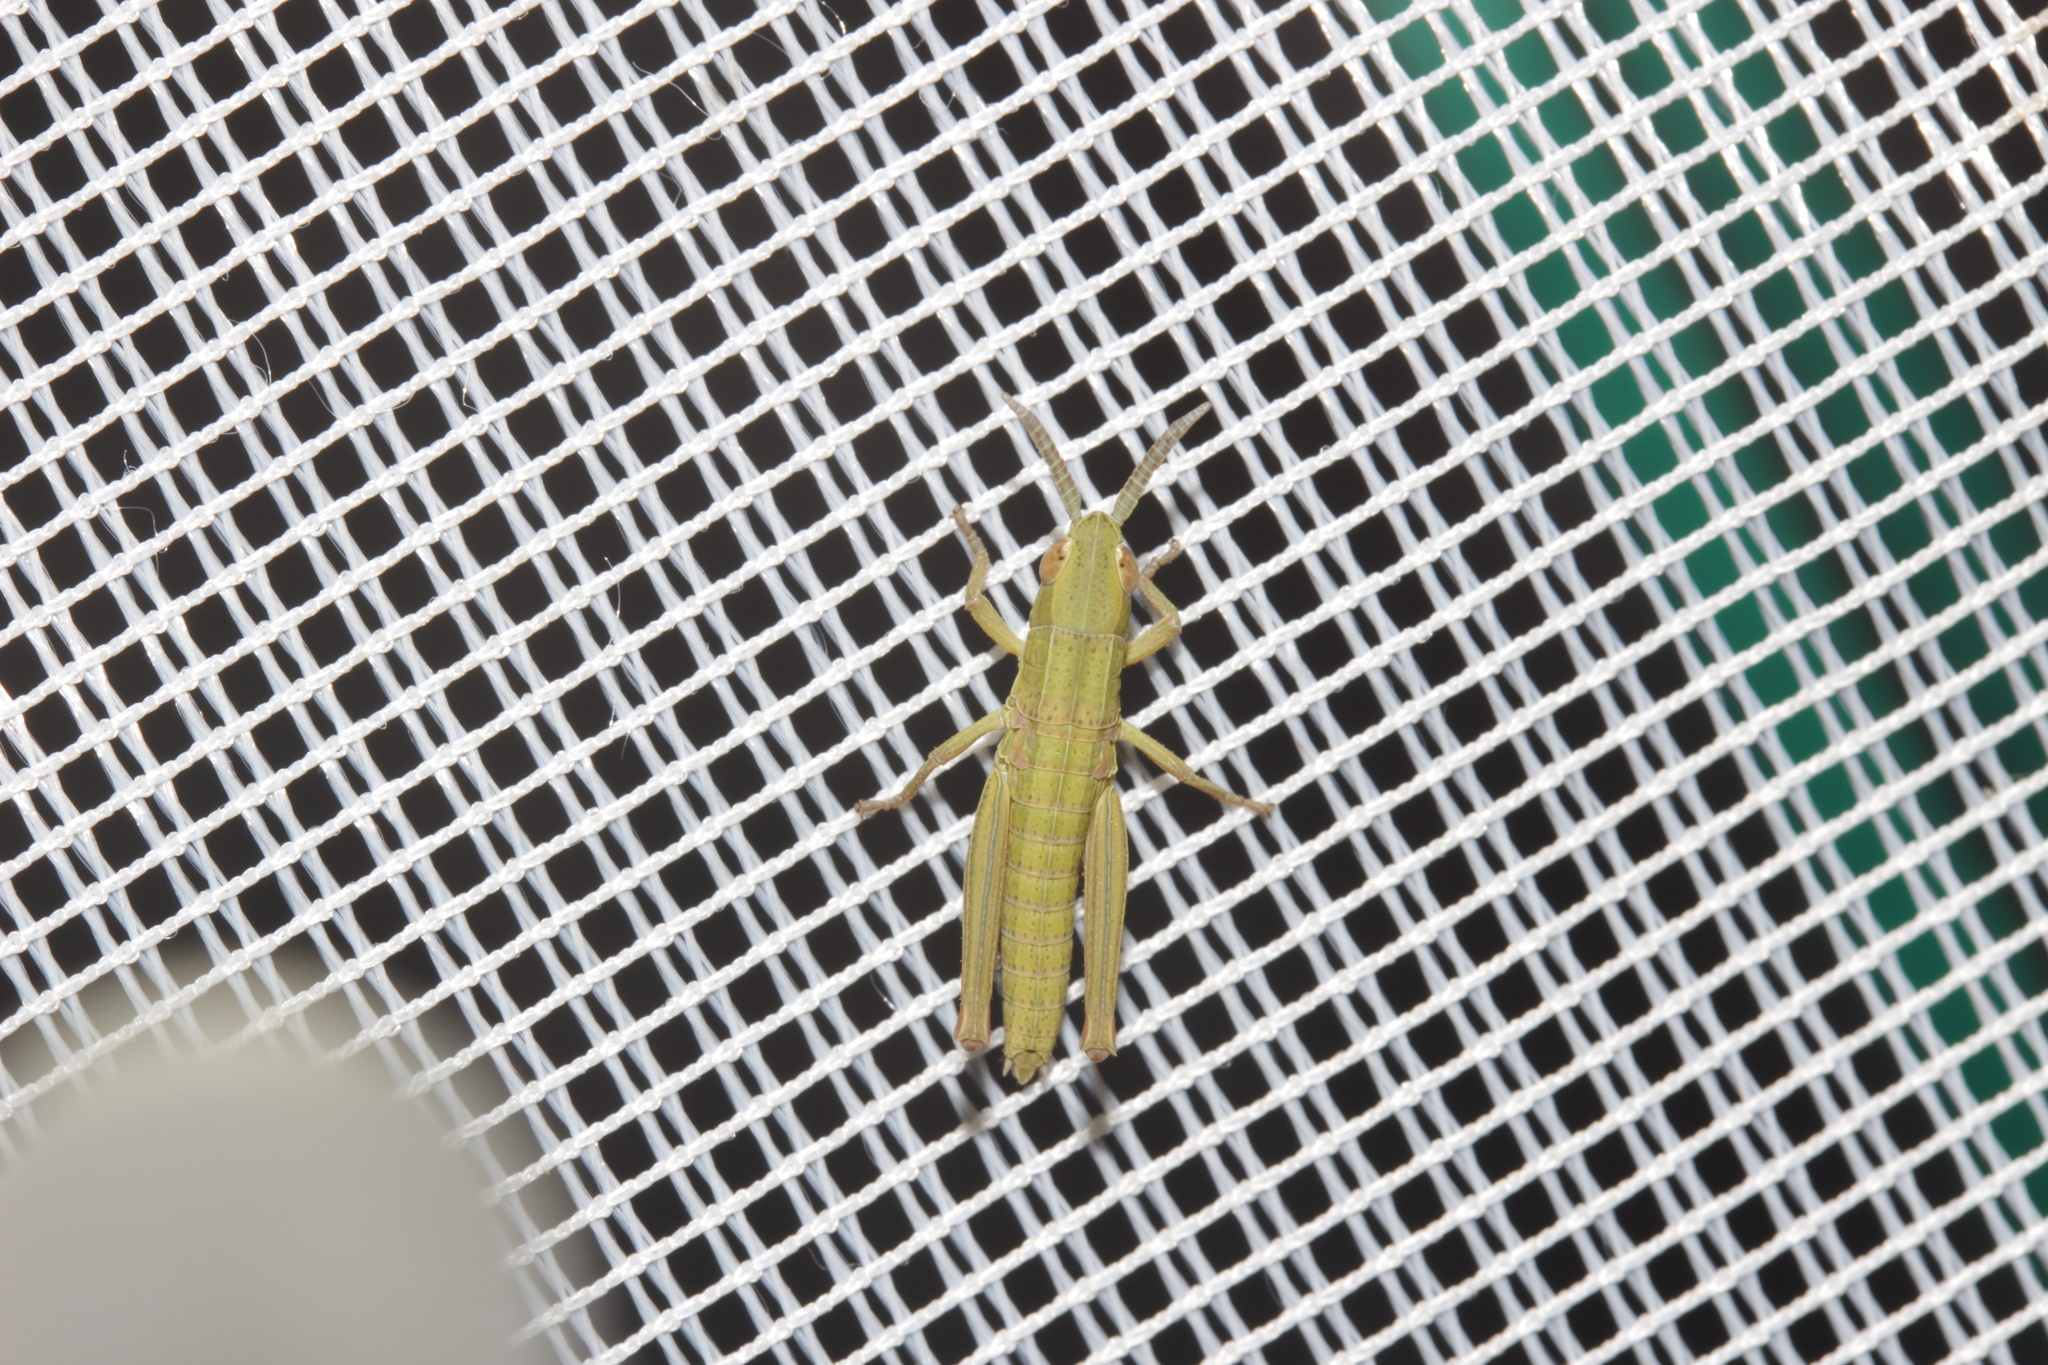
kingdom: Animalia
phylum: Arthropoda
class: Insecta
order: Orthoptera
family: Acrididae
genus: Euthystira
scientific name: Euthystira brachyptera
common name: Small gold grasshopper
